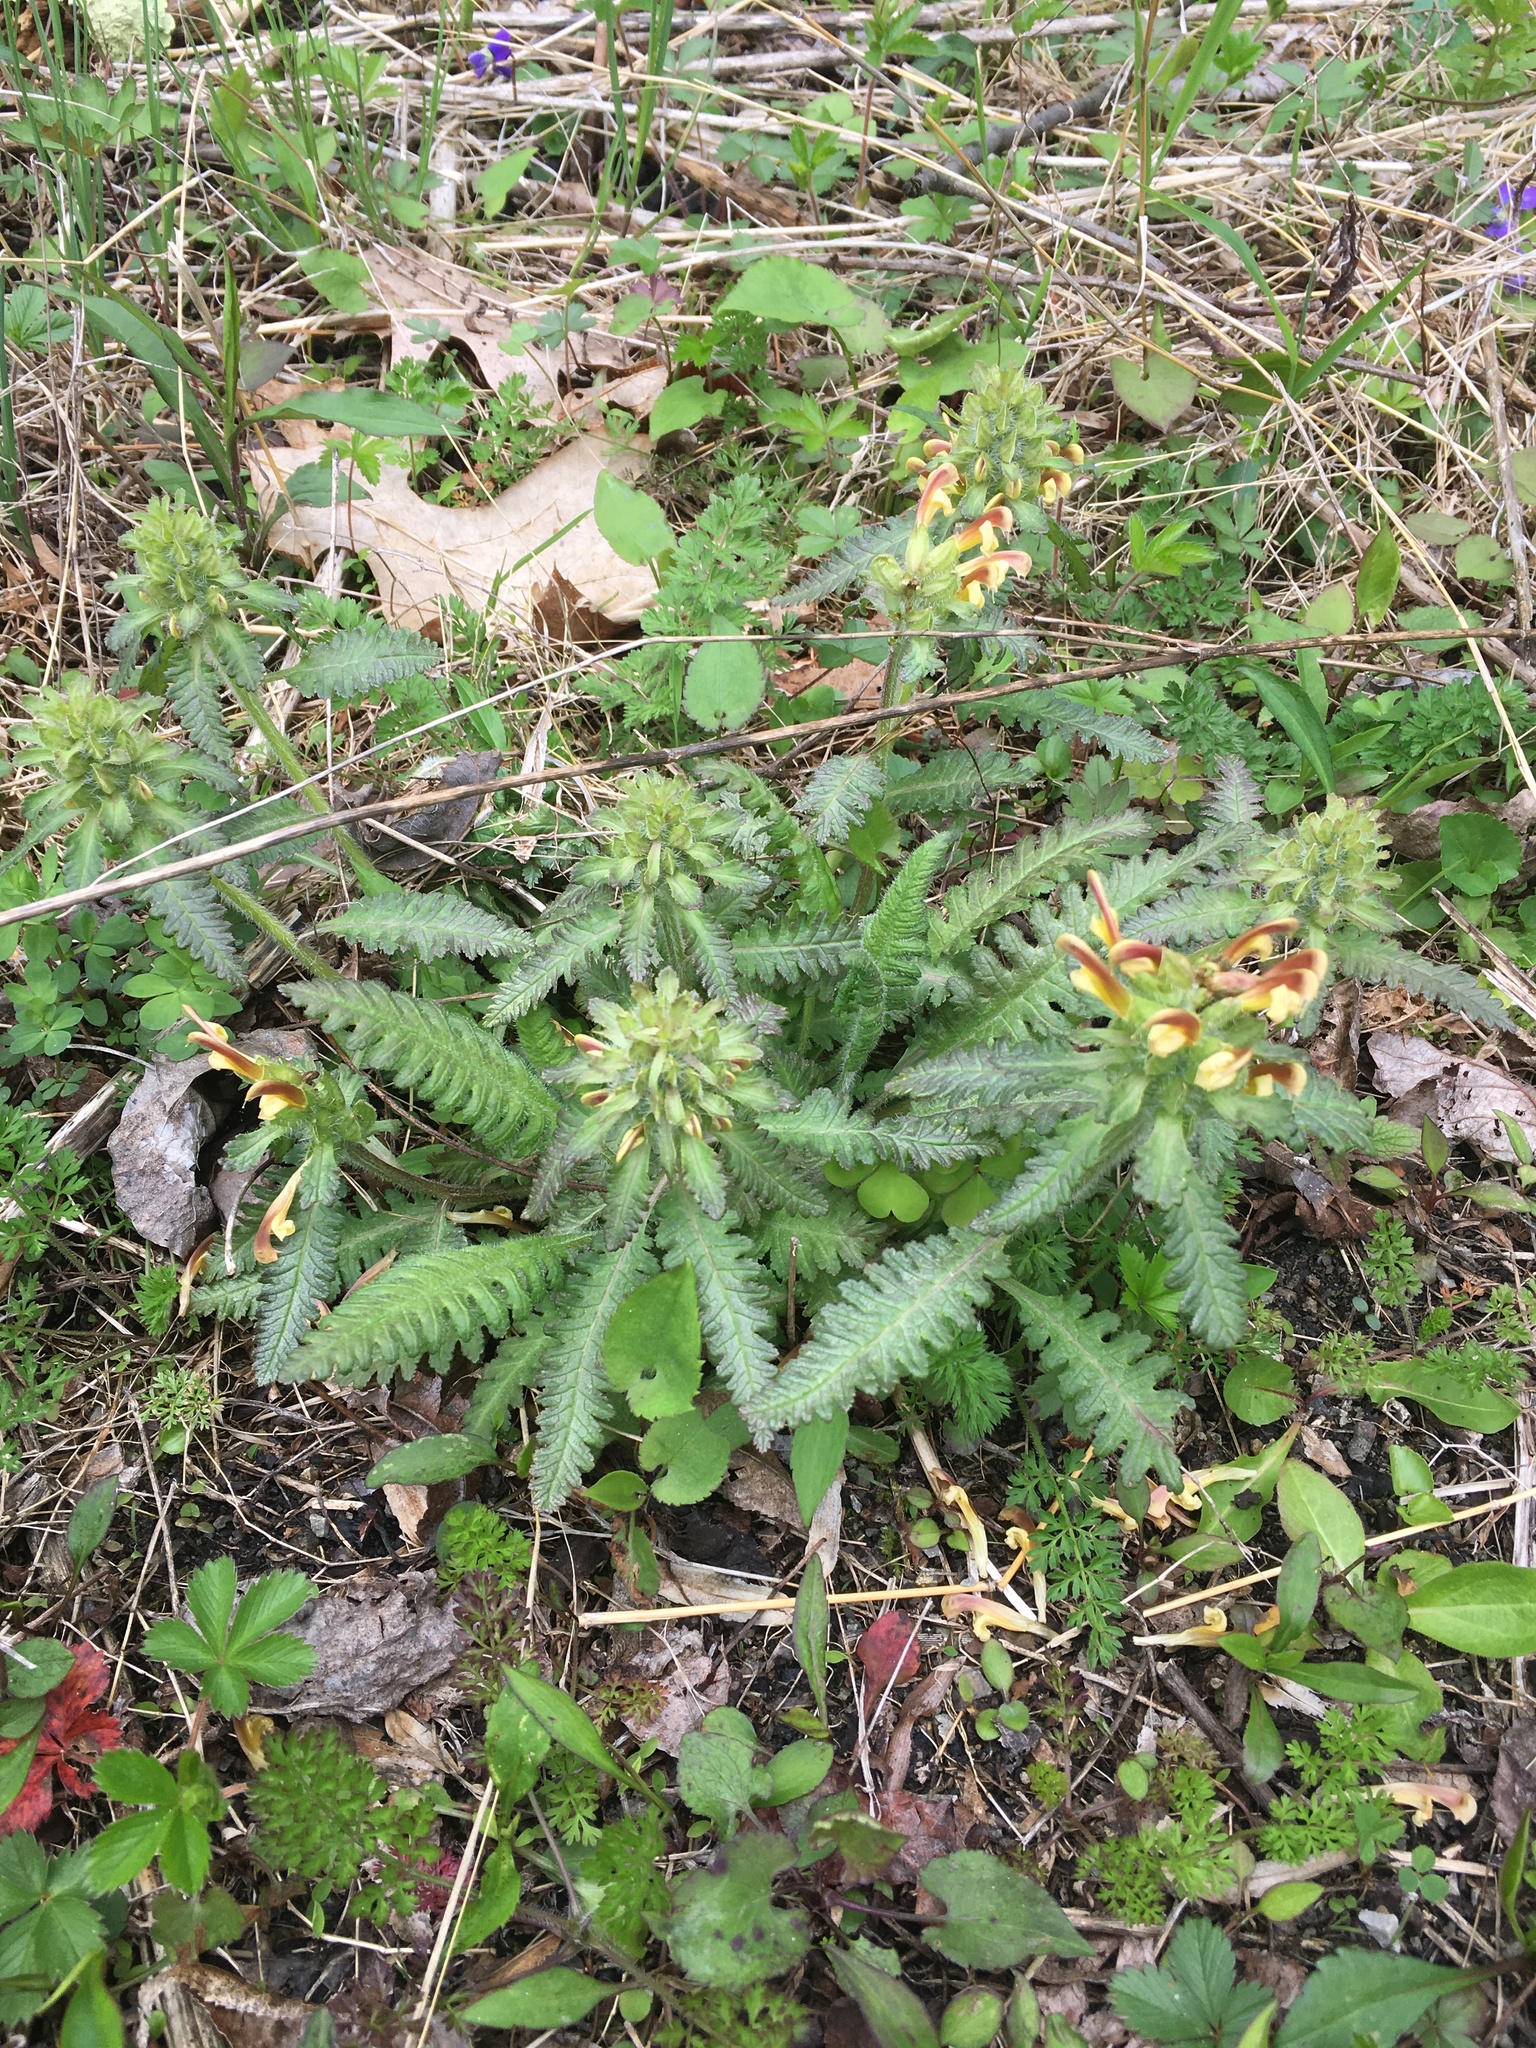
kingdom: Plantae
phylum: Tracheophyta
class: Magnoliopsida
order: Lamiales
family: Orobanchaceae
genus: Pedicularis
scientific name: Pedicularis canadensis
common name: Early lousewort
